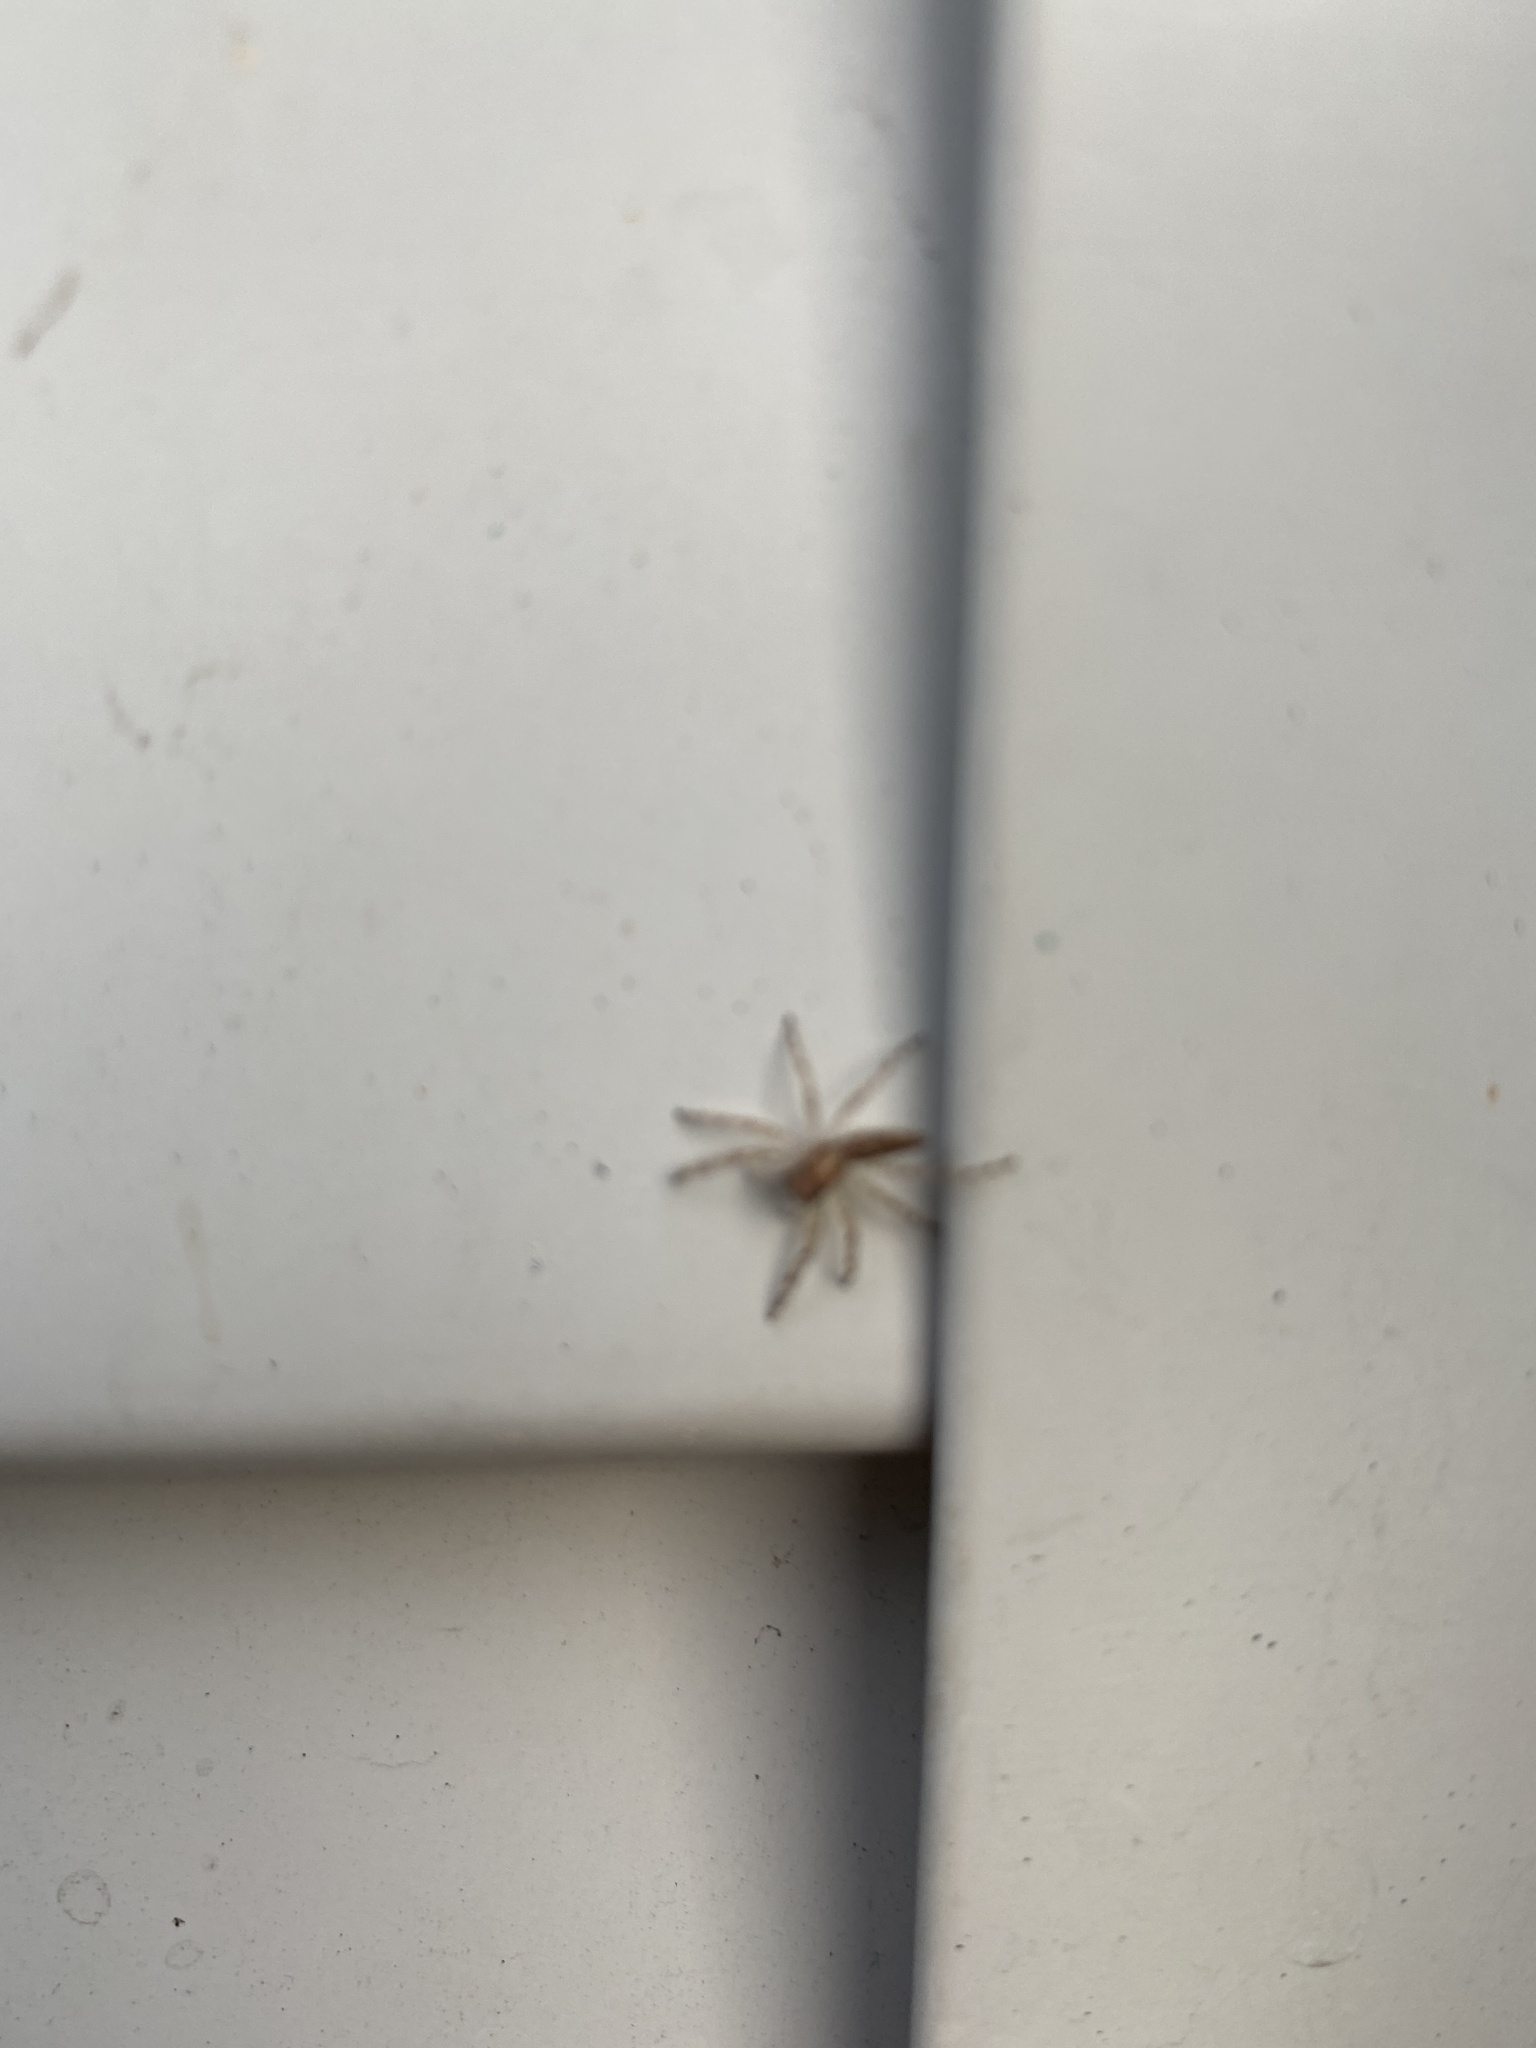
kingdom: Animalia
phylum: Arthropoda
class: Arachnida
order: Araneae
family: Salticidae
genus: Helpis
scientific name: Helpis minitabunda
